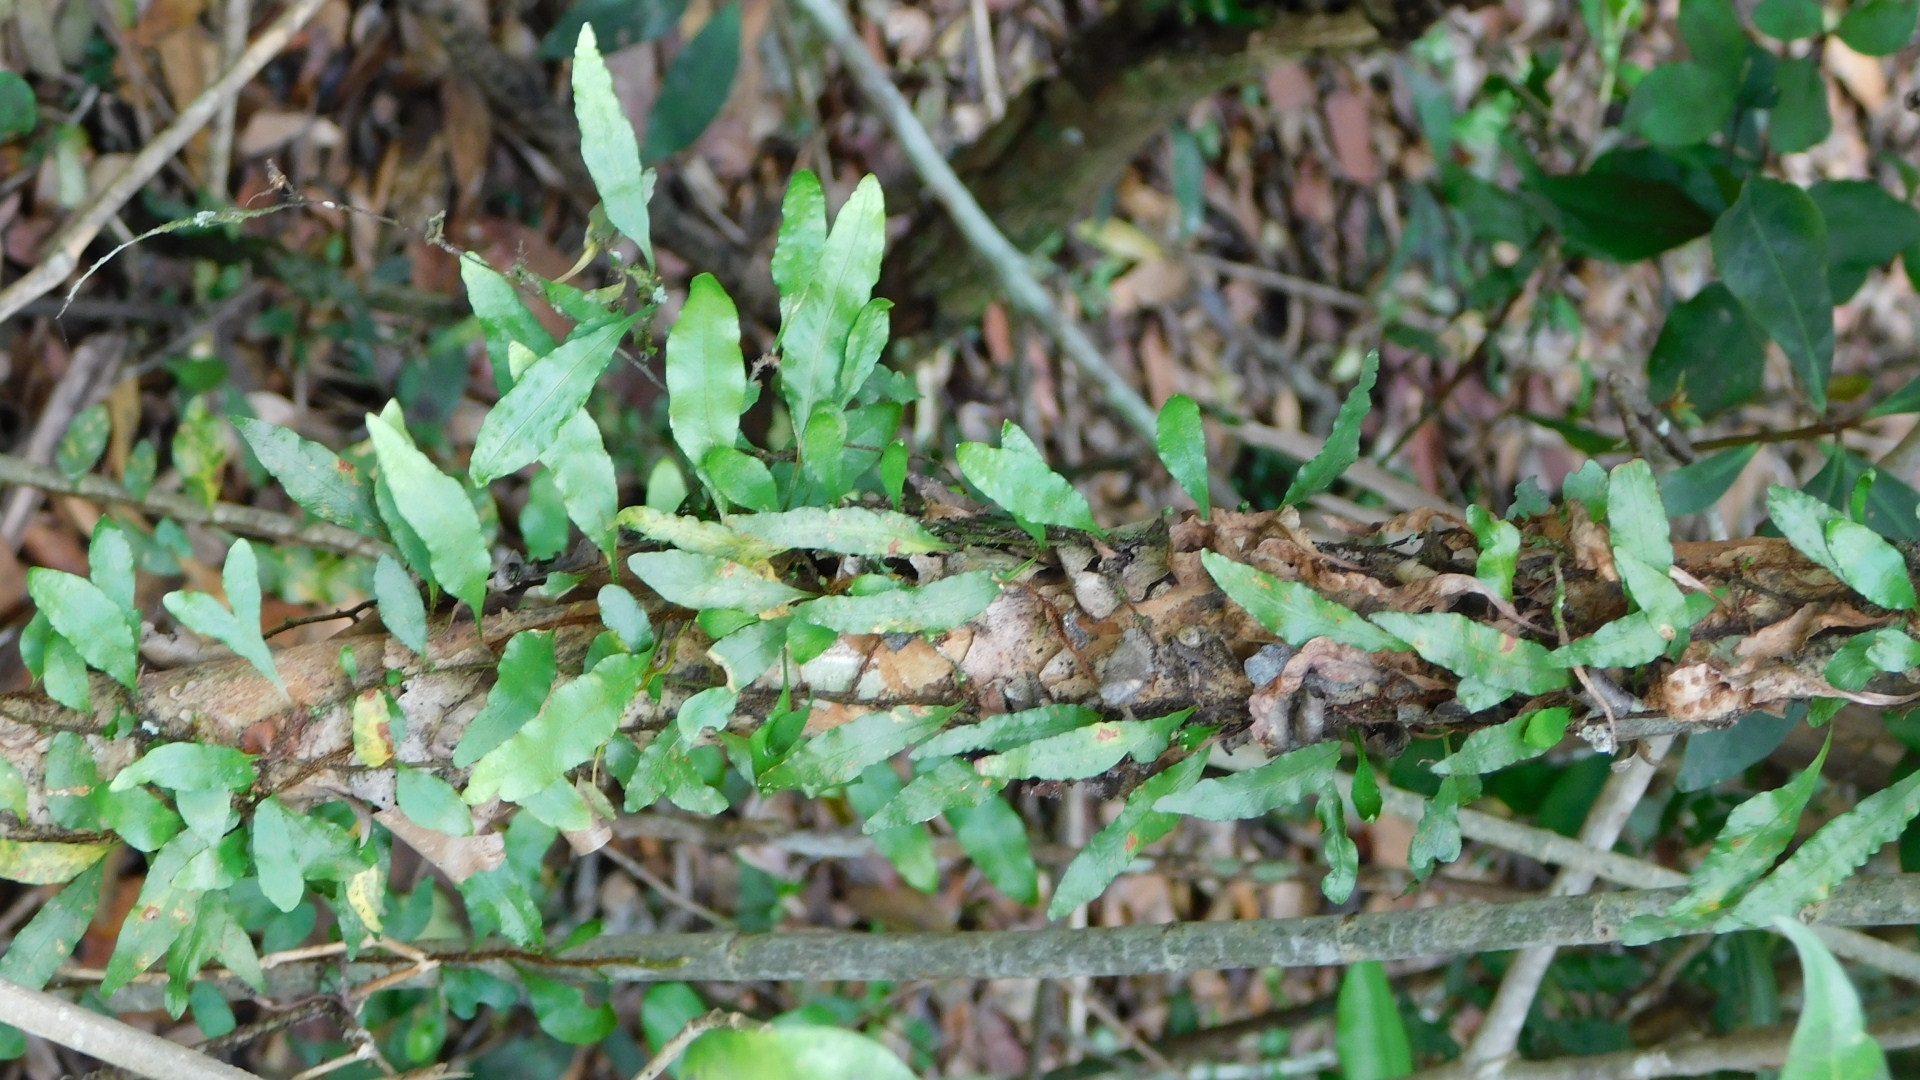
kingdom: Plantae
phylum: Tracheophyta
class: Polypodiopsida
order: Polypodiales
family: Polypodiaceae
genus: Microgramma
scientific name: Microgramma heterophylla
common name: Clinging snakefern
